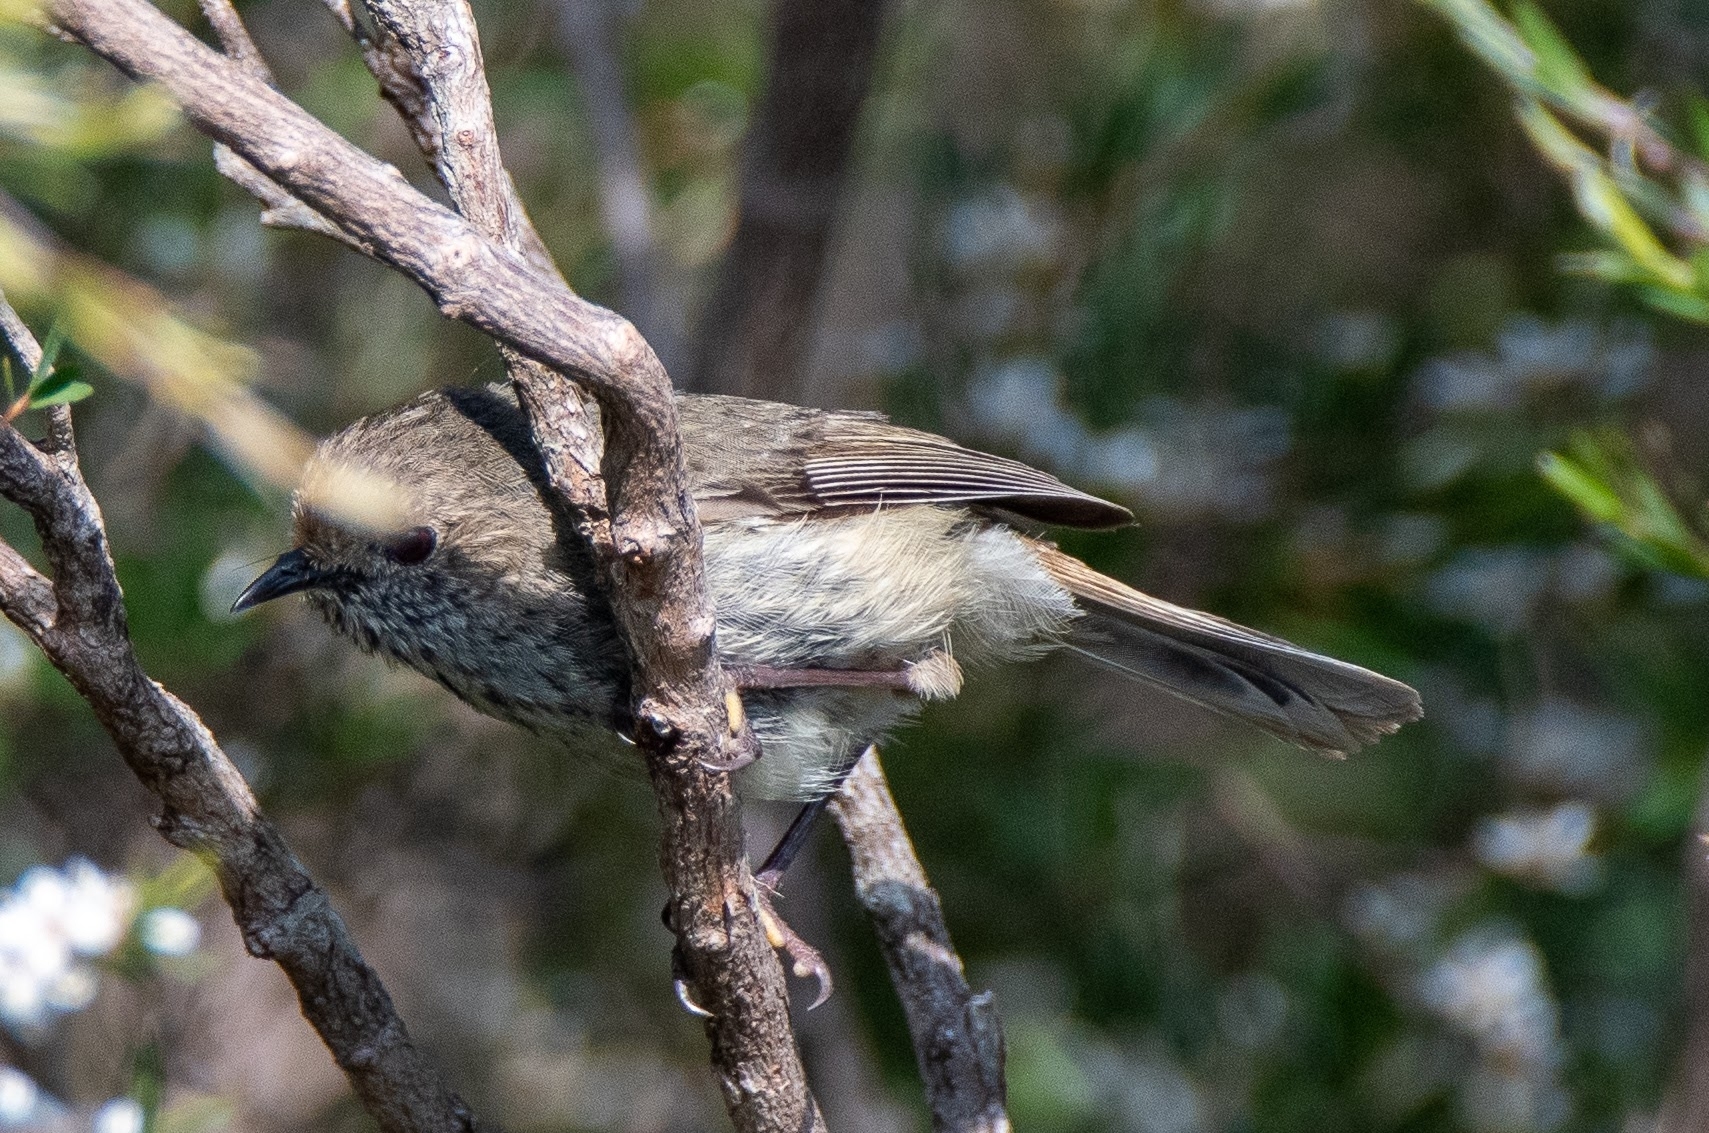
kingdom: Animalia
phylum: Chordata
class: Aves
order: Passeriformes
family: Acanthizidae
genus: Acanthiza
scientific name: Acanthiza pusilla
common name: Brown thornbill
